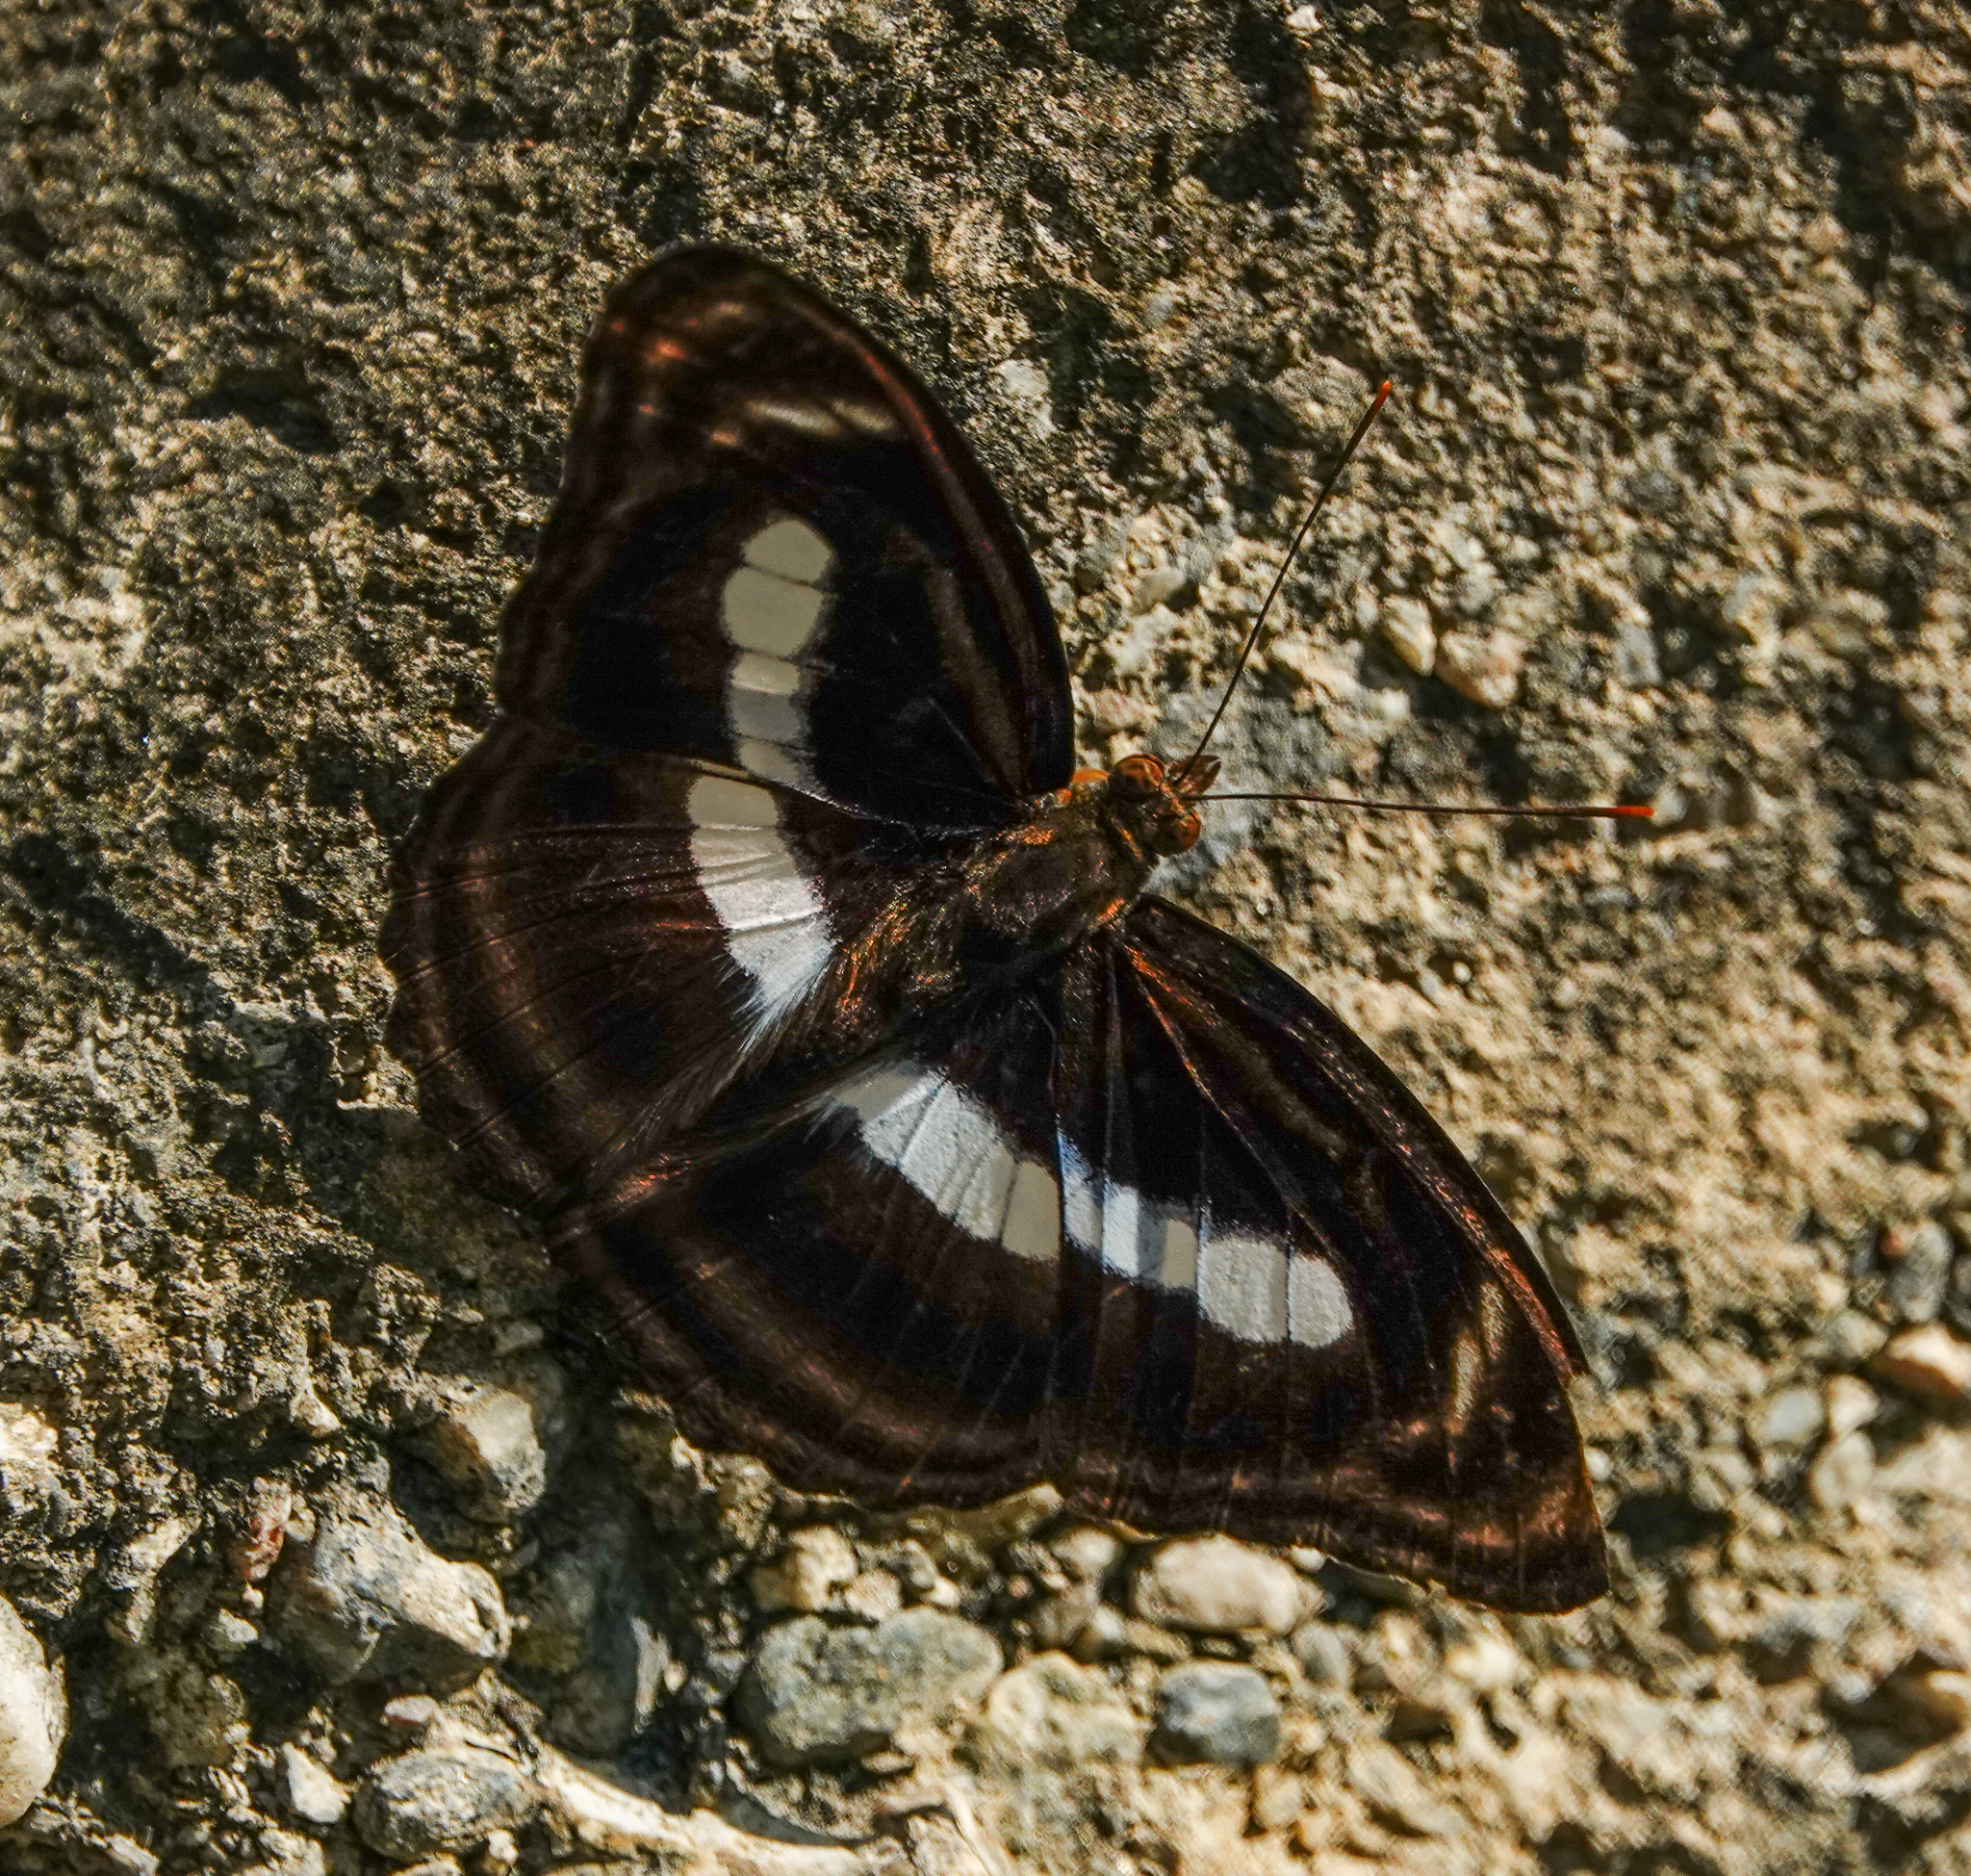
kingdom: Animalia
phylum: Arthropoda
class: Insecta
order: Lepidoptera
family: Nymphalidae
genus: Pantoporia
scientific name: Pantoporia zeroca
